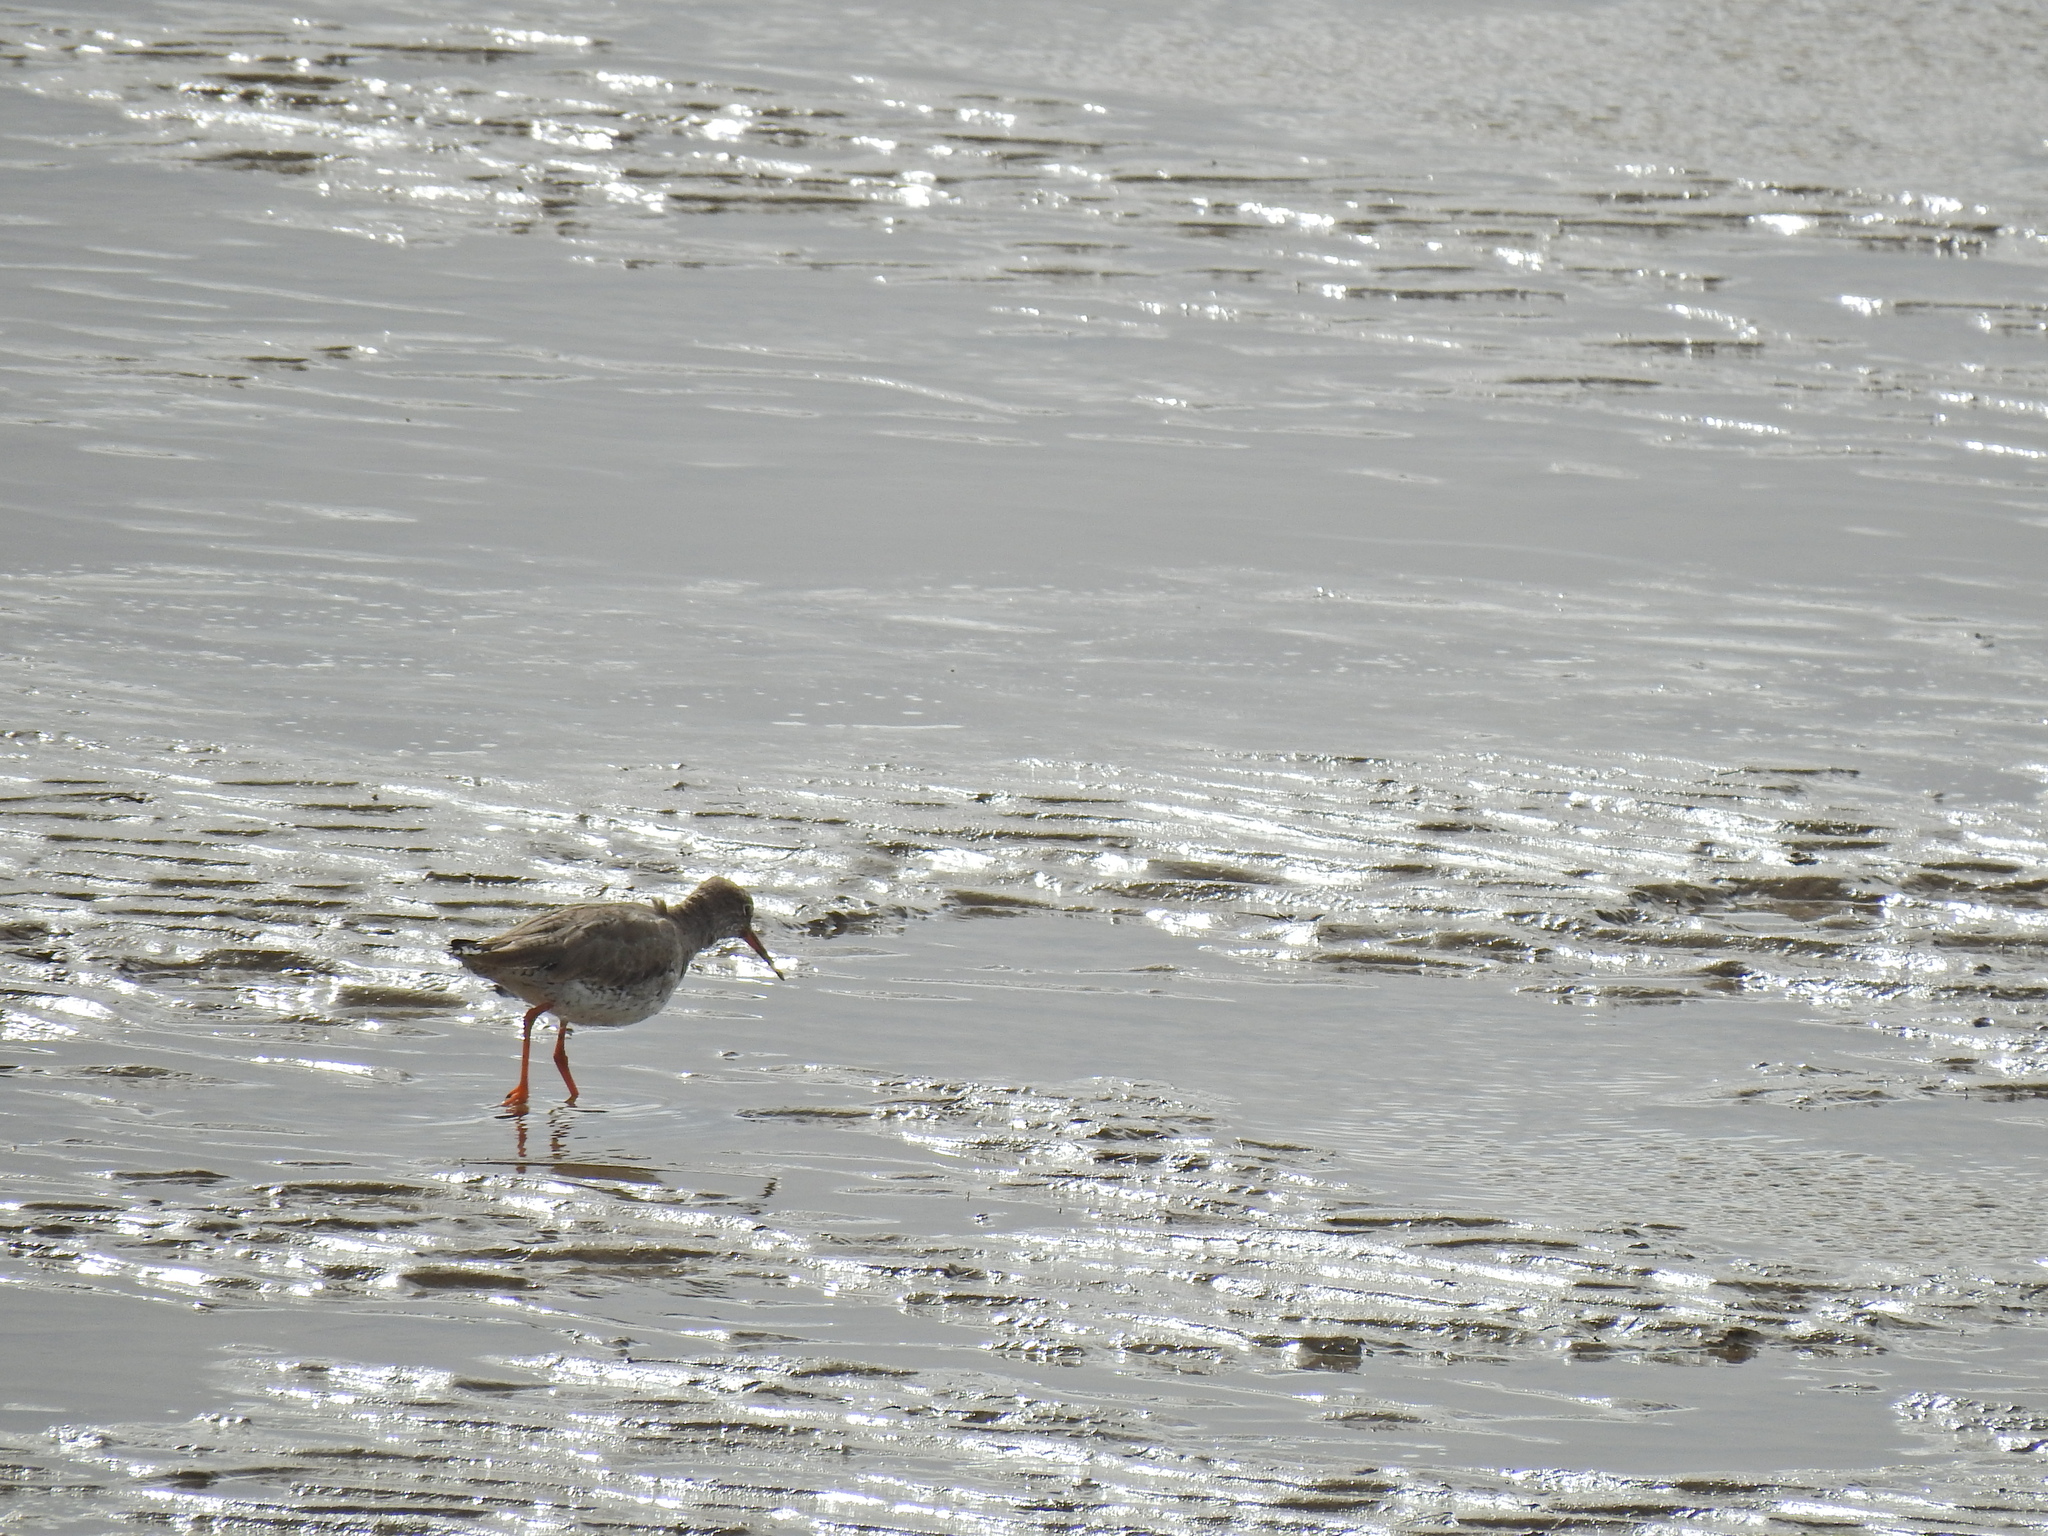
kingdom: Animalia
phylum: Chordata
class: Aves
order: Charadriiformes
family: Scolopacidae
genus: Tringa
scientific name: Tringa totanus
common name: Common redshank
